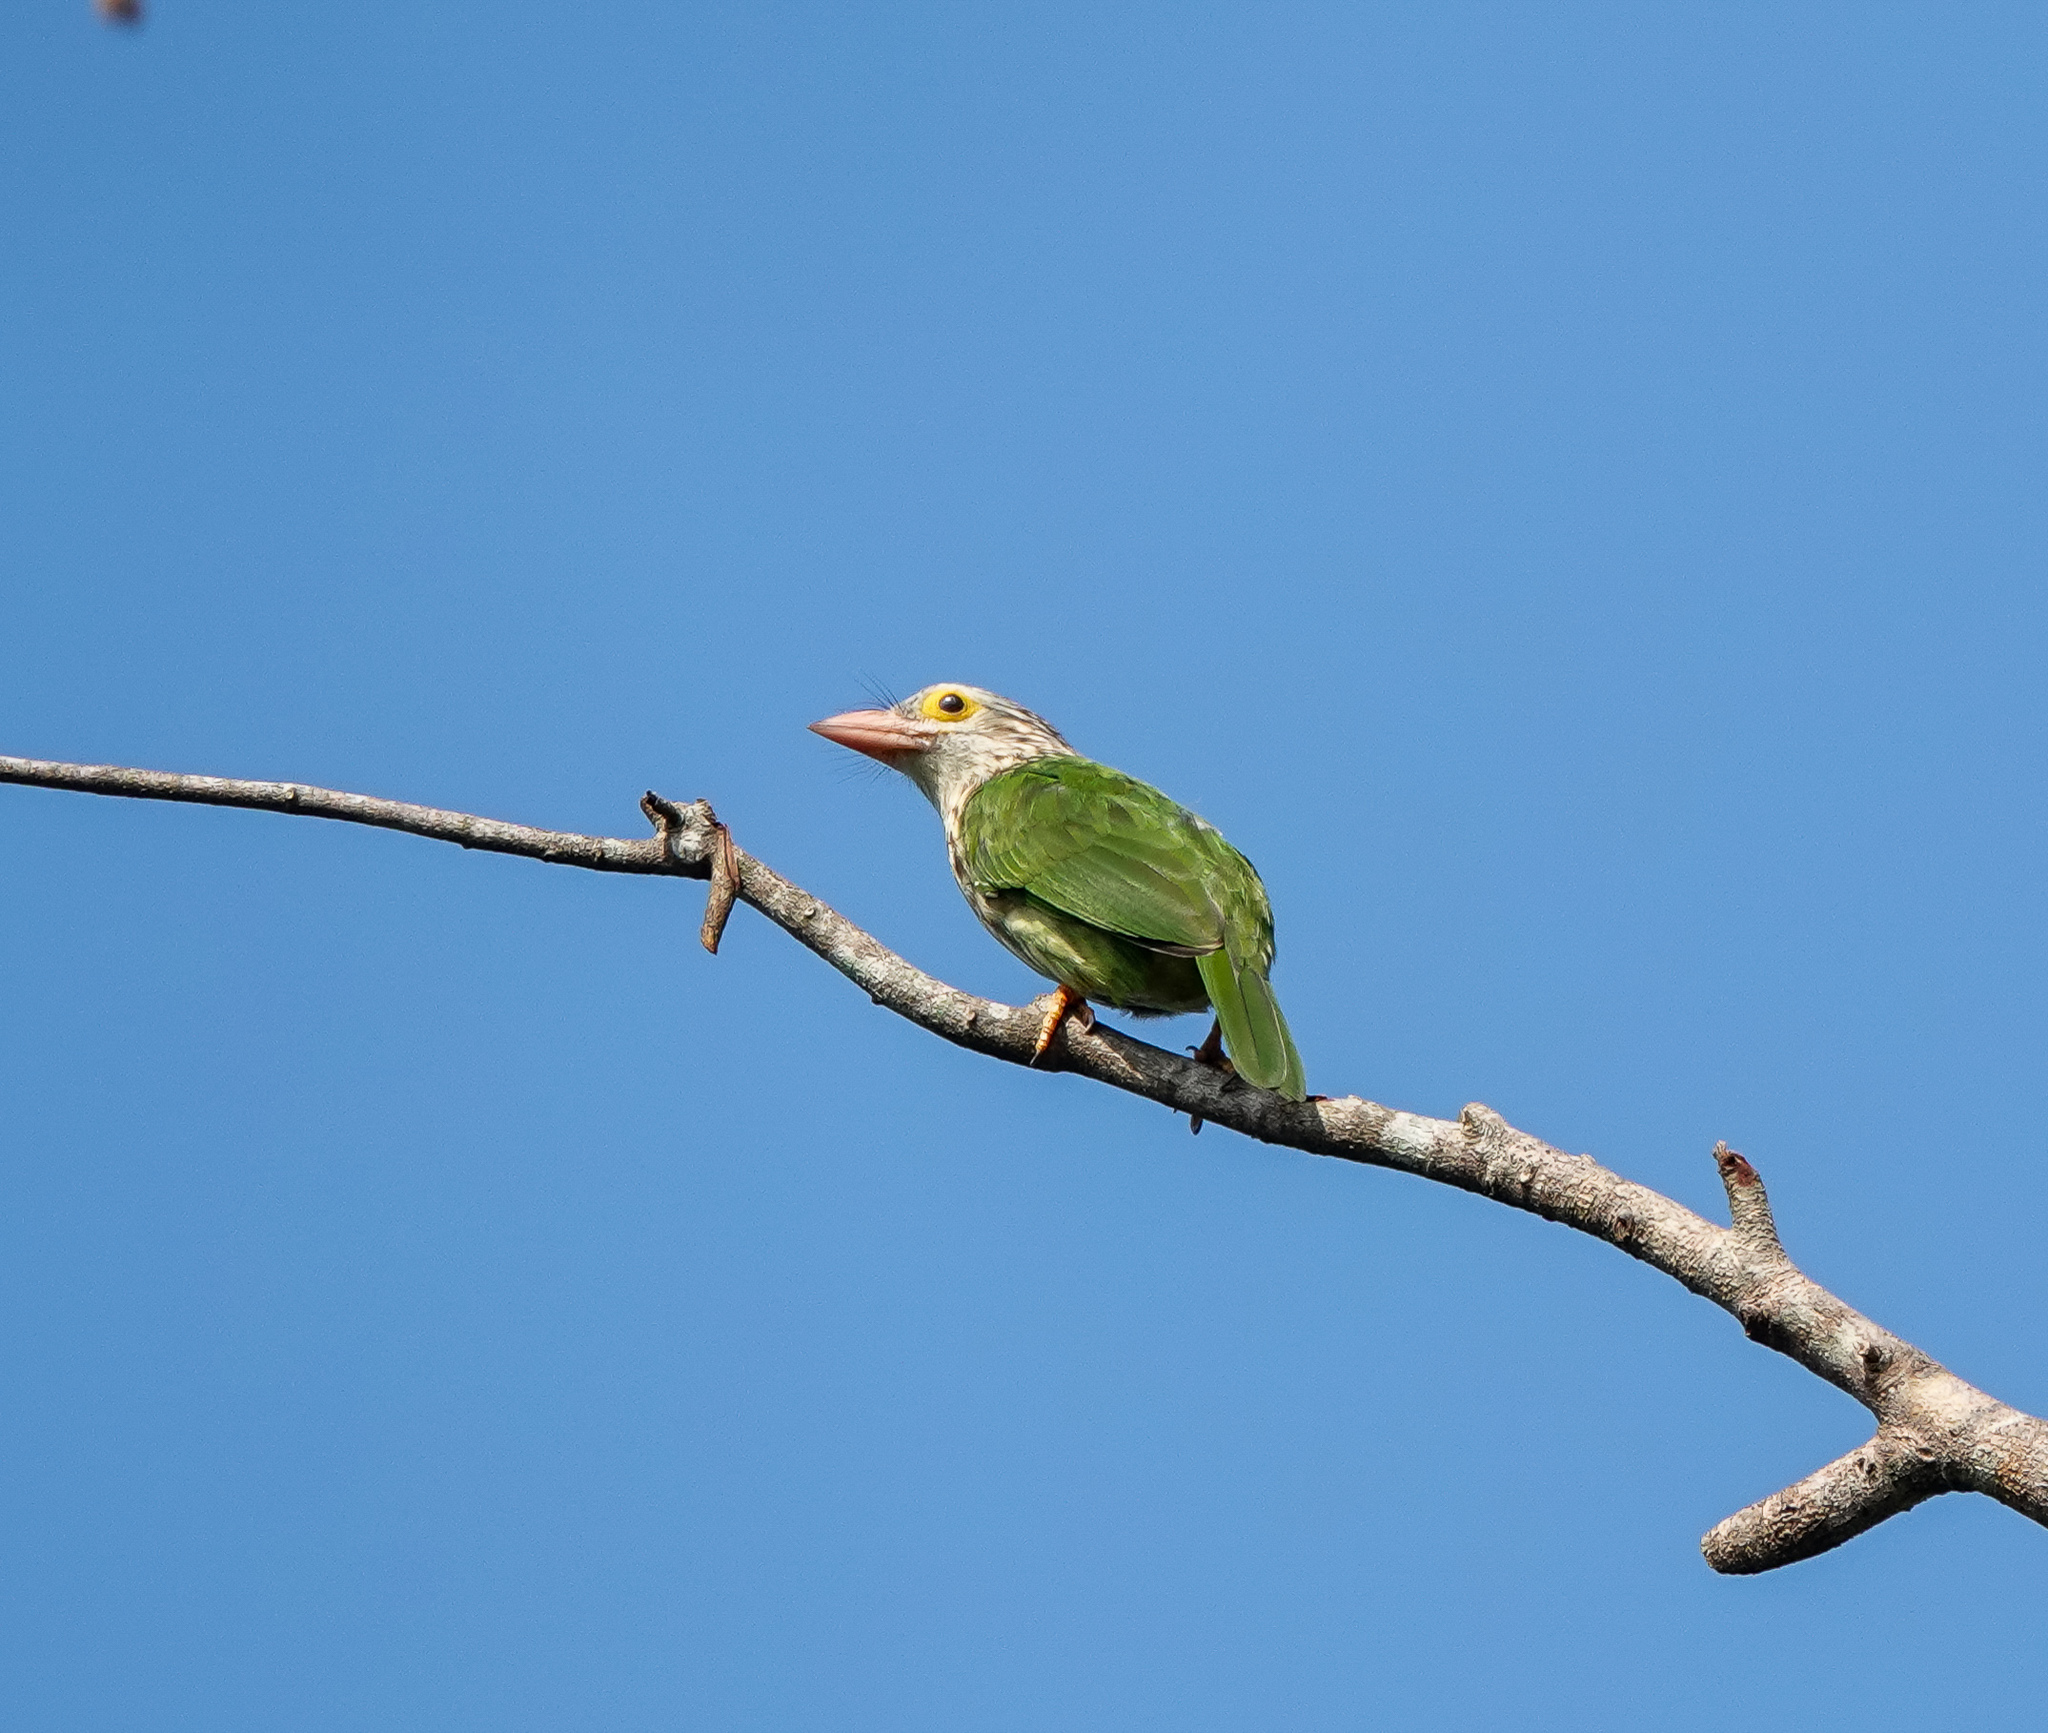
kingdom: Animalia
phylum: Chordata
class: Aves
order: Piciformes
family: Megalaimidae
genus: Psilopogon
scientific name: Psilopogon lineatus
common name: Lineated barbet
